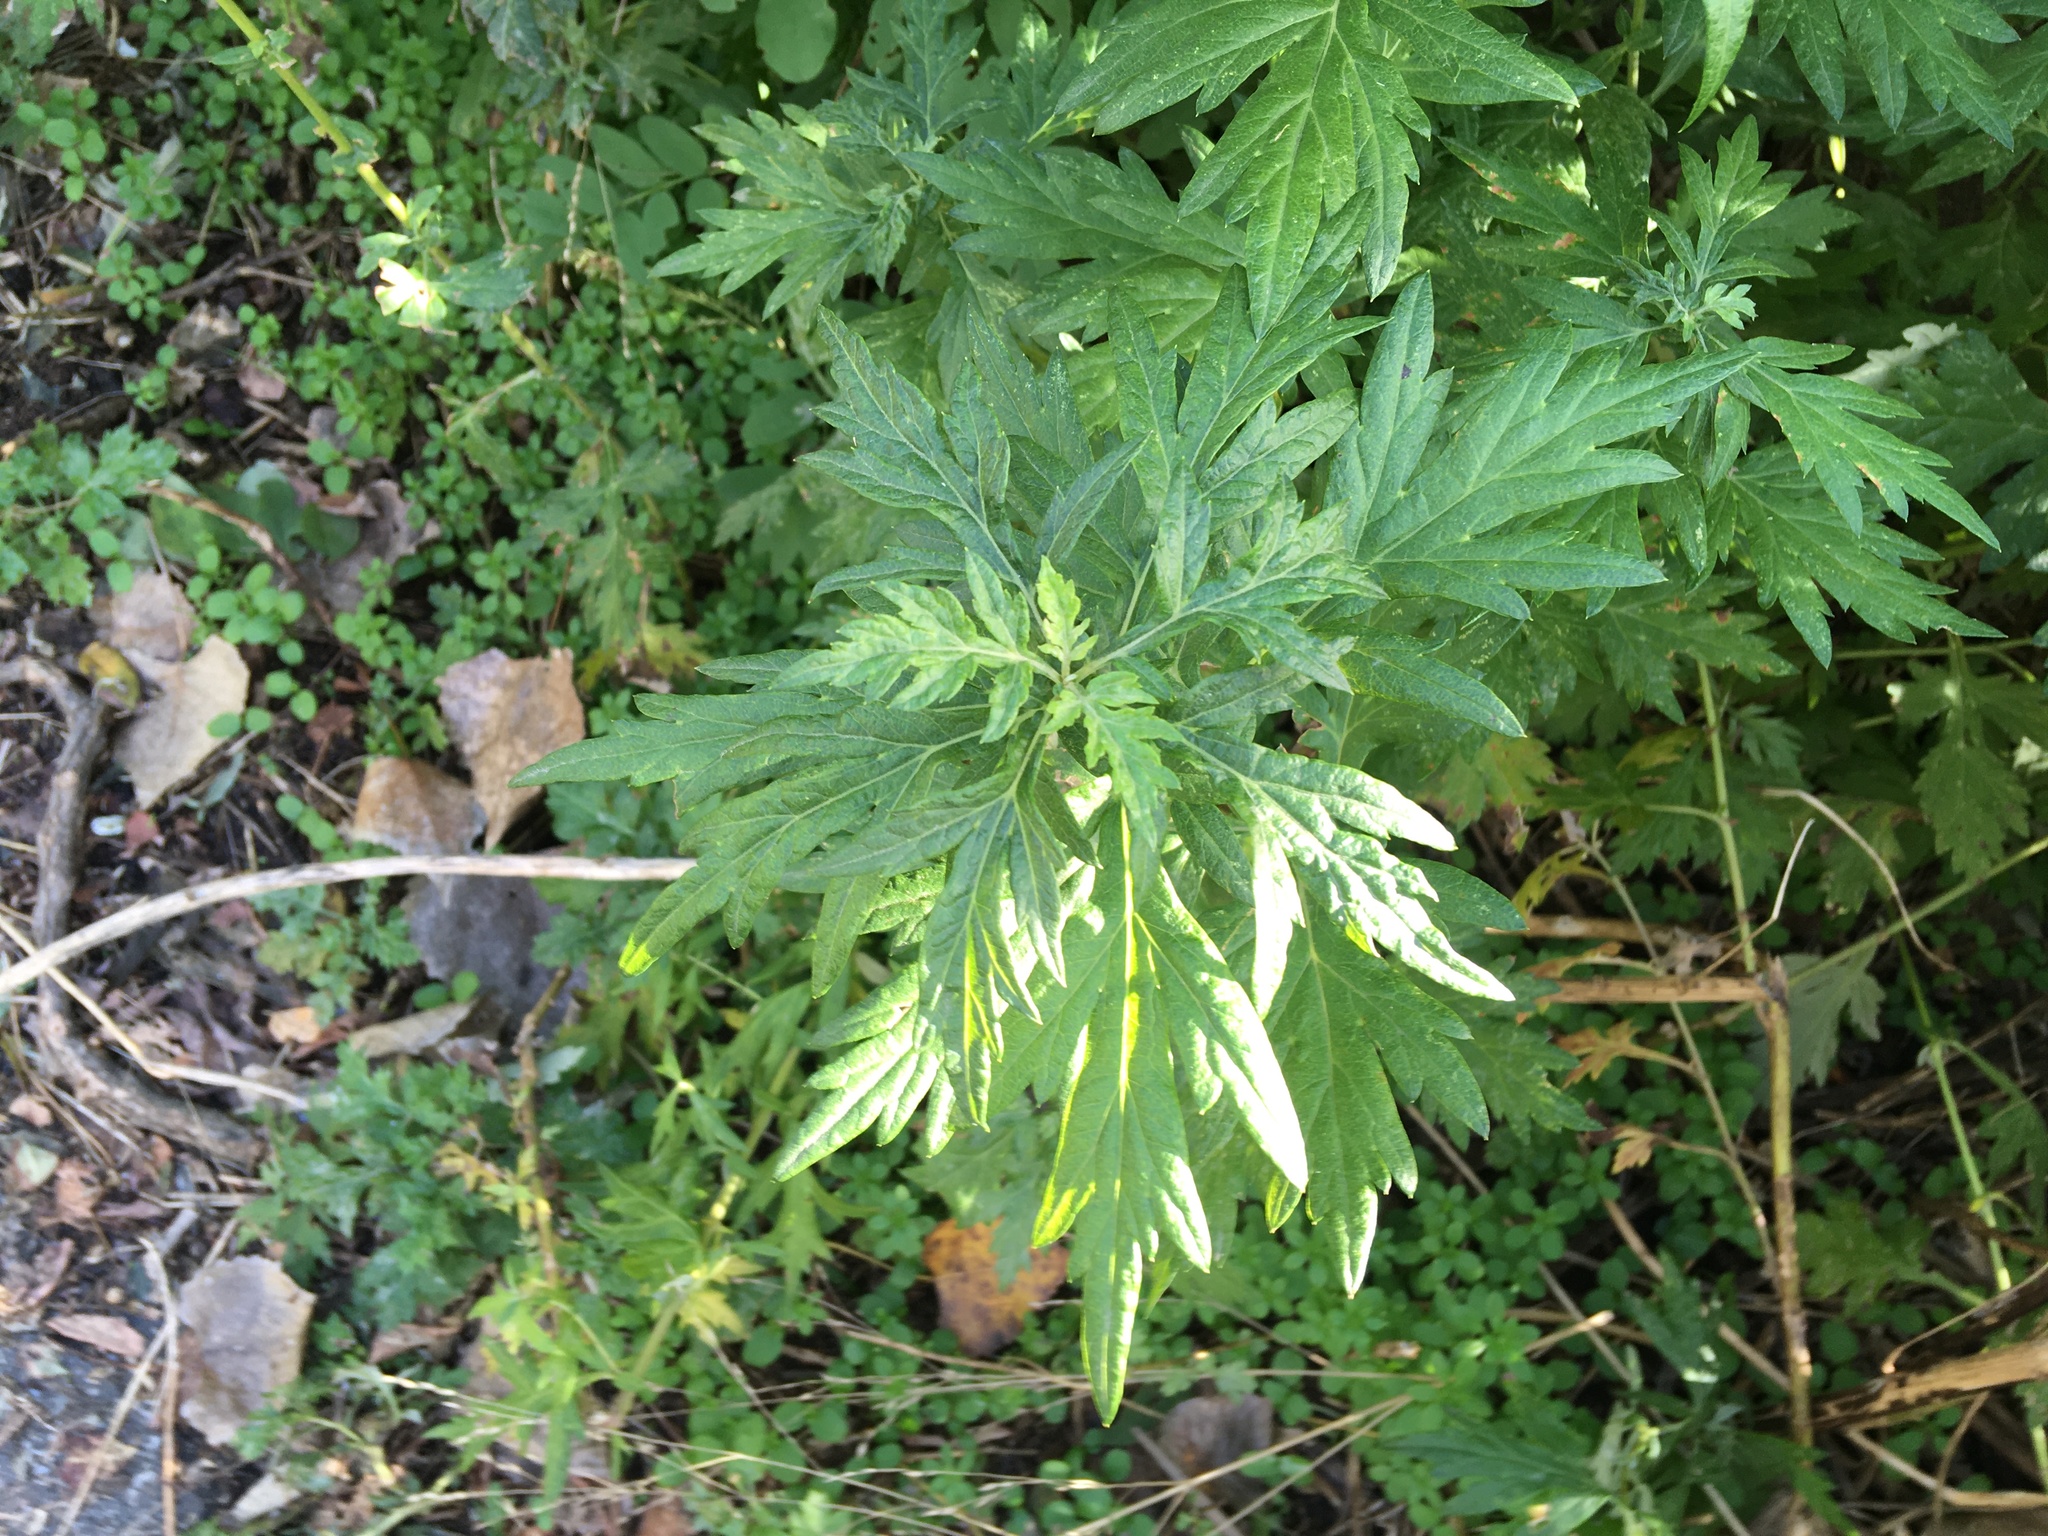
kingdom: Plantae
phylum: Tracheophyta
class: Magnoliopsida
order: Asterales
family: Asteraceae
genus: Artemisia
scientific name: Artemisia vulgaris
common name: Mugwort
